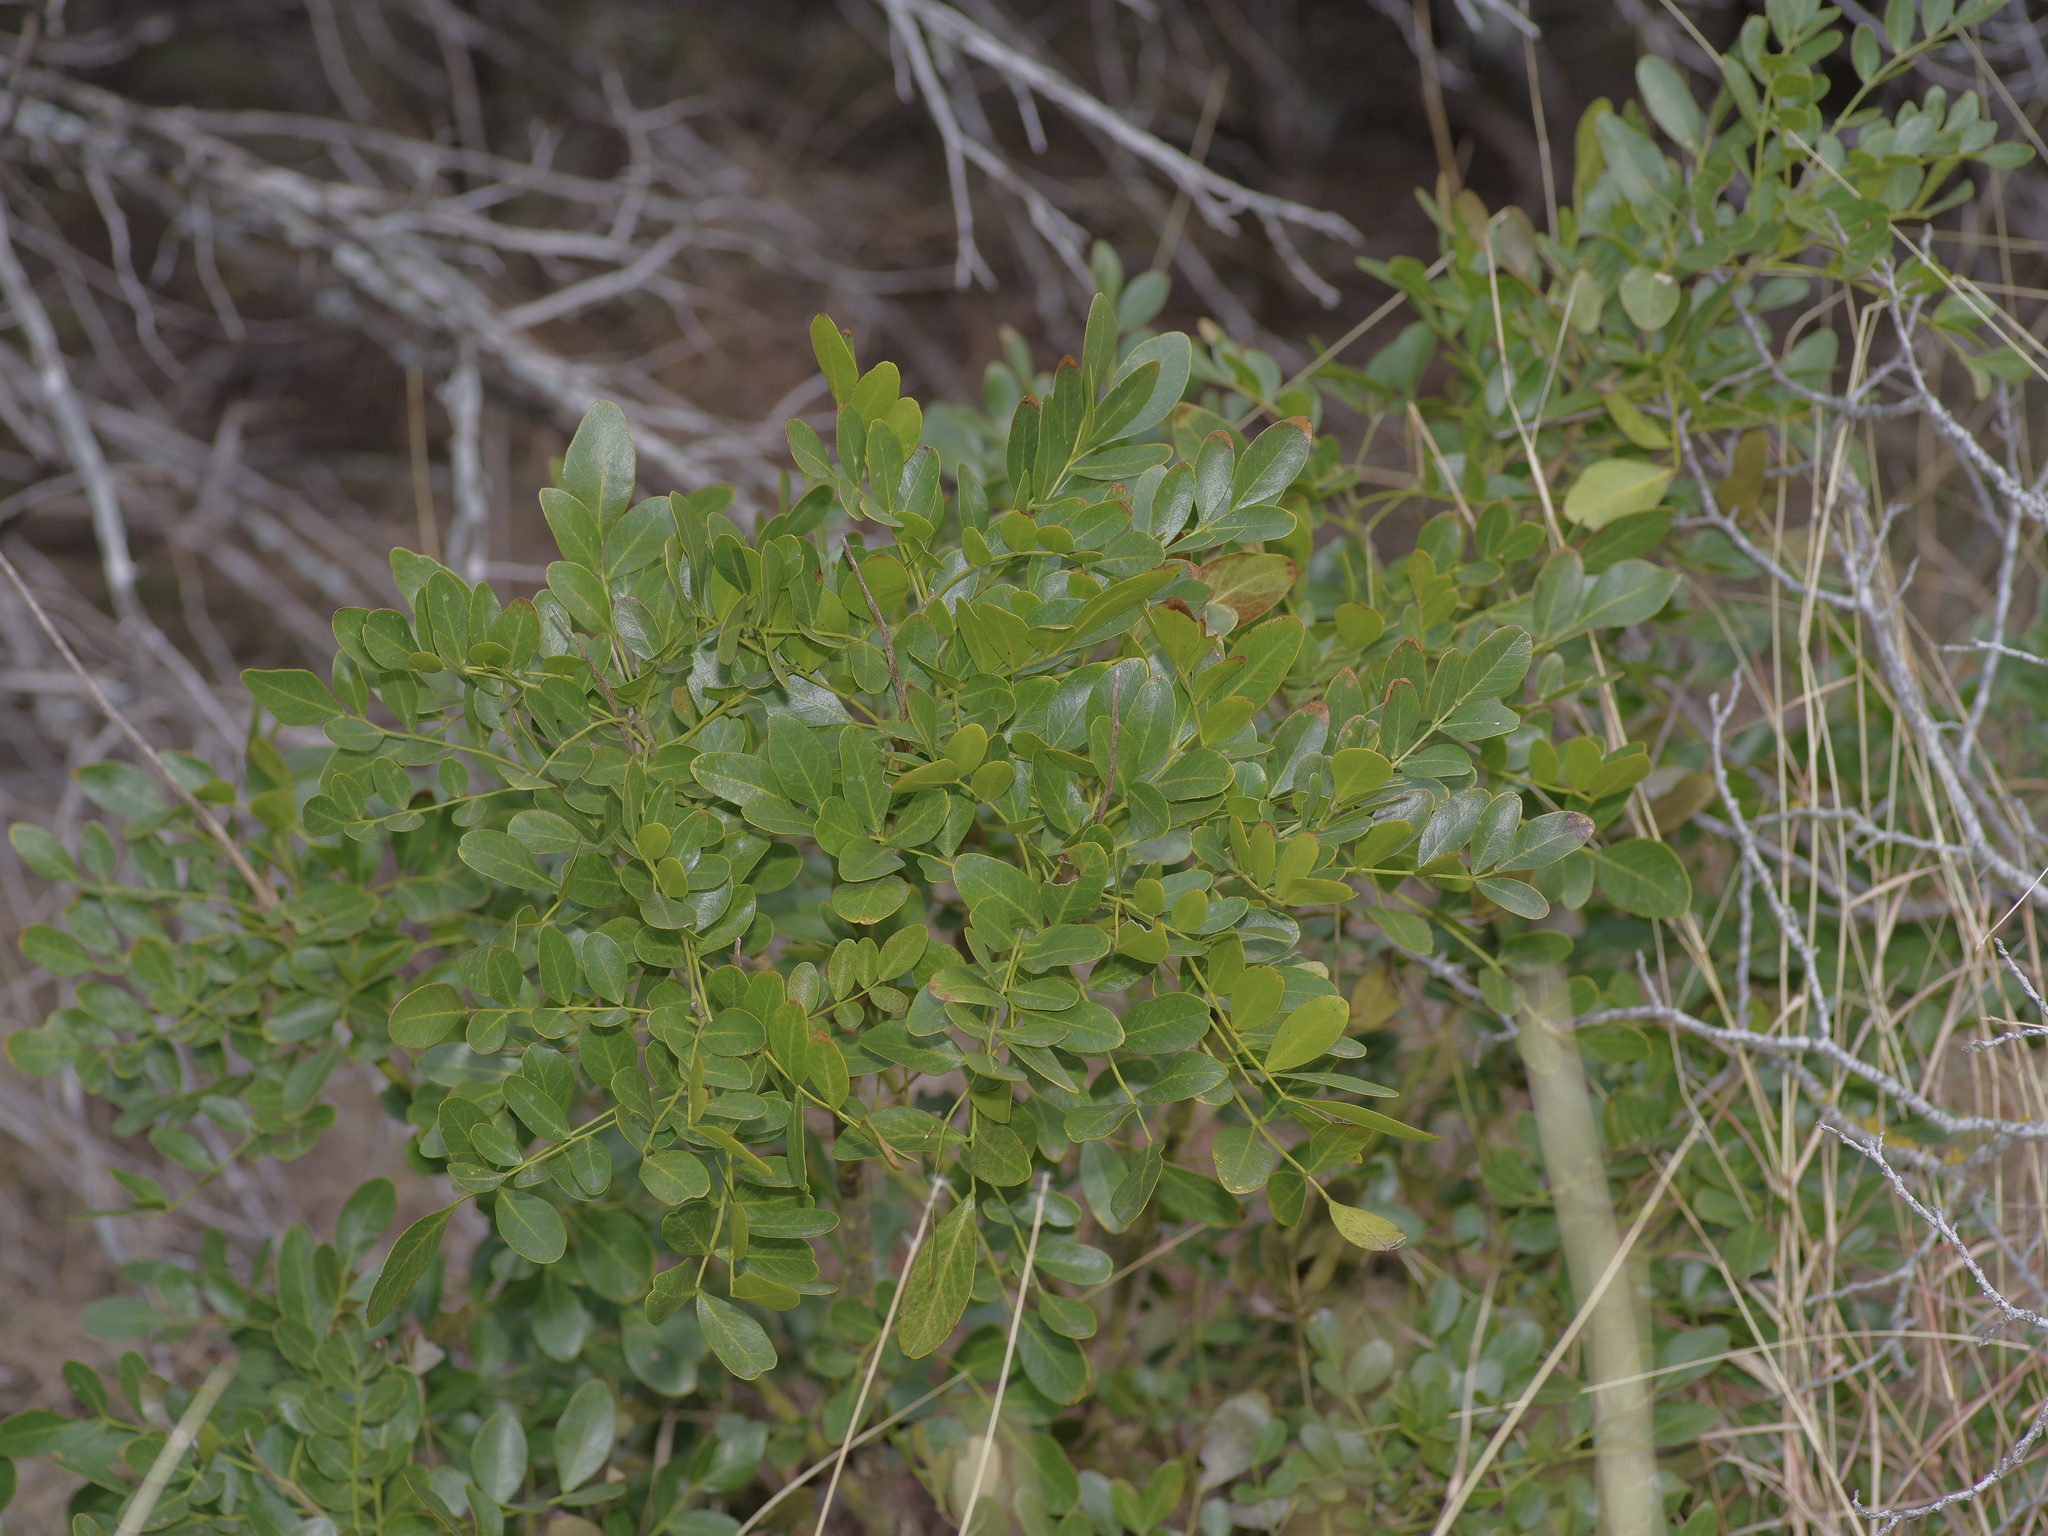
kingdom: Plantae
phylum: Tracheophyta
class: Magnoliopsida
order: Fabales
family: Fabaceae
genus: Dermatophyllum
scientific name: Dermatophyllum secundiflorum
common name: Texas-mountain-laurel
